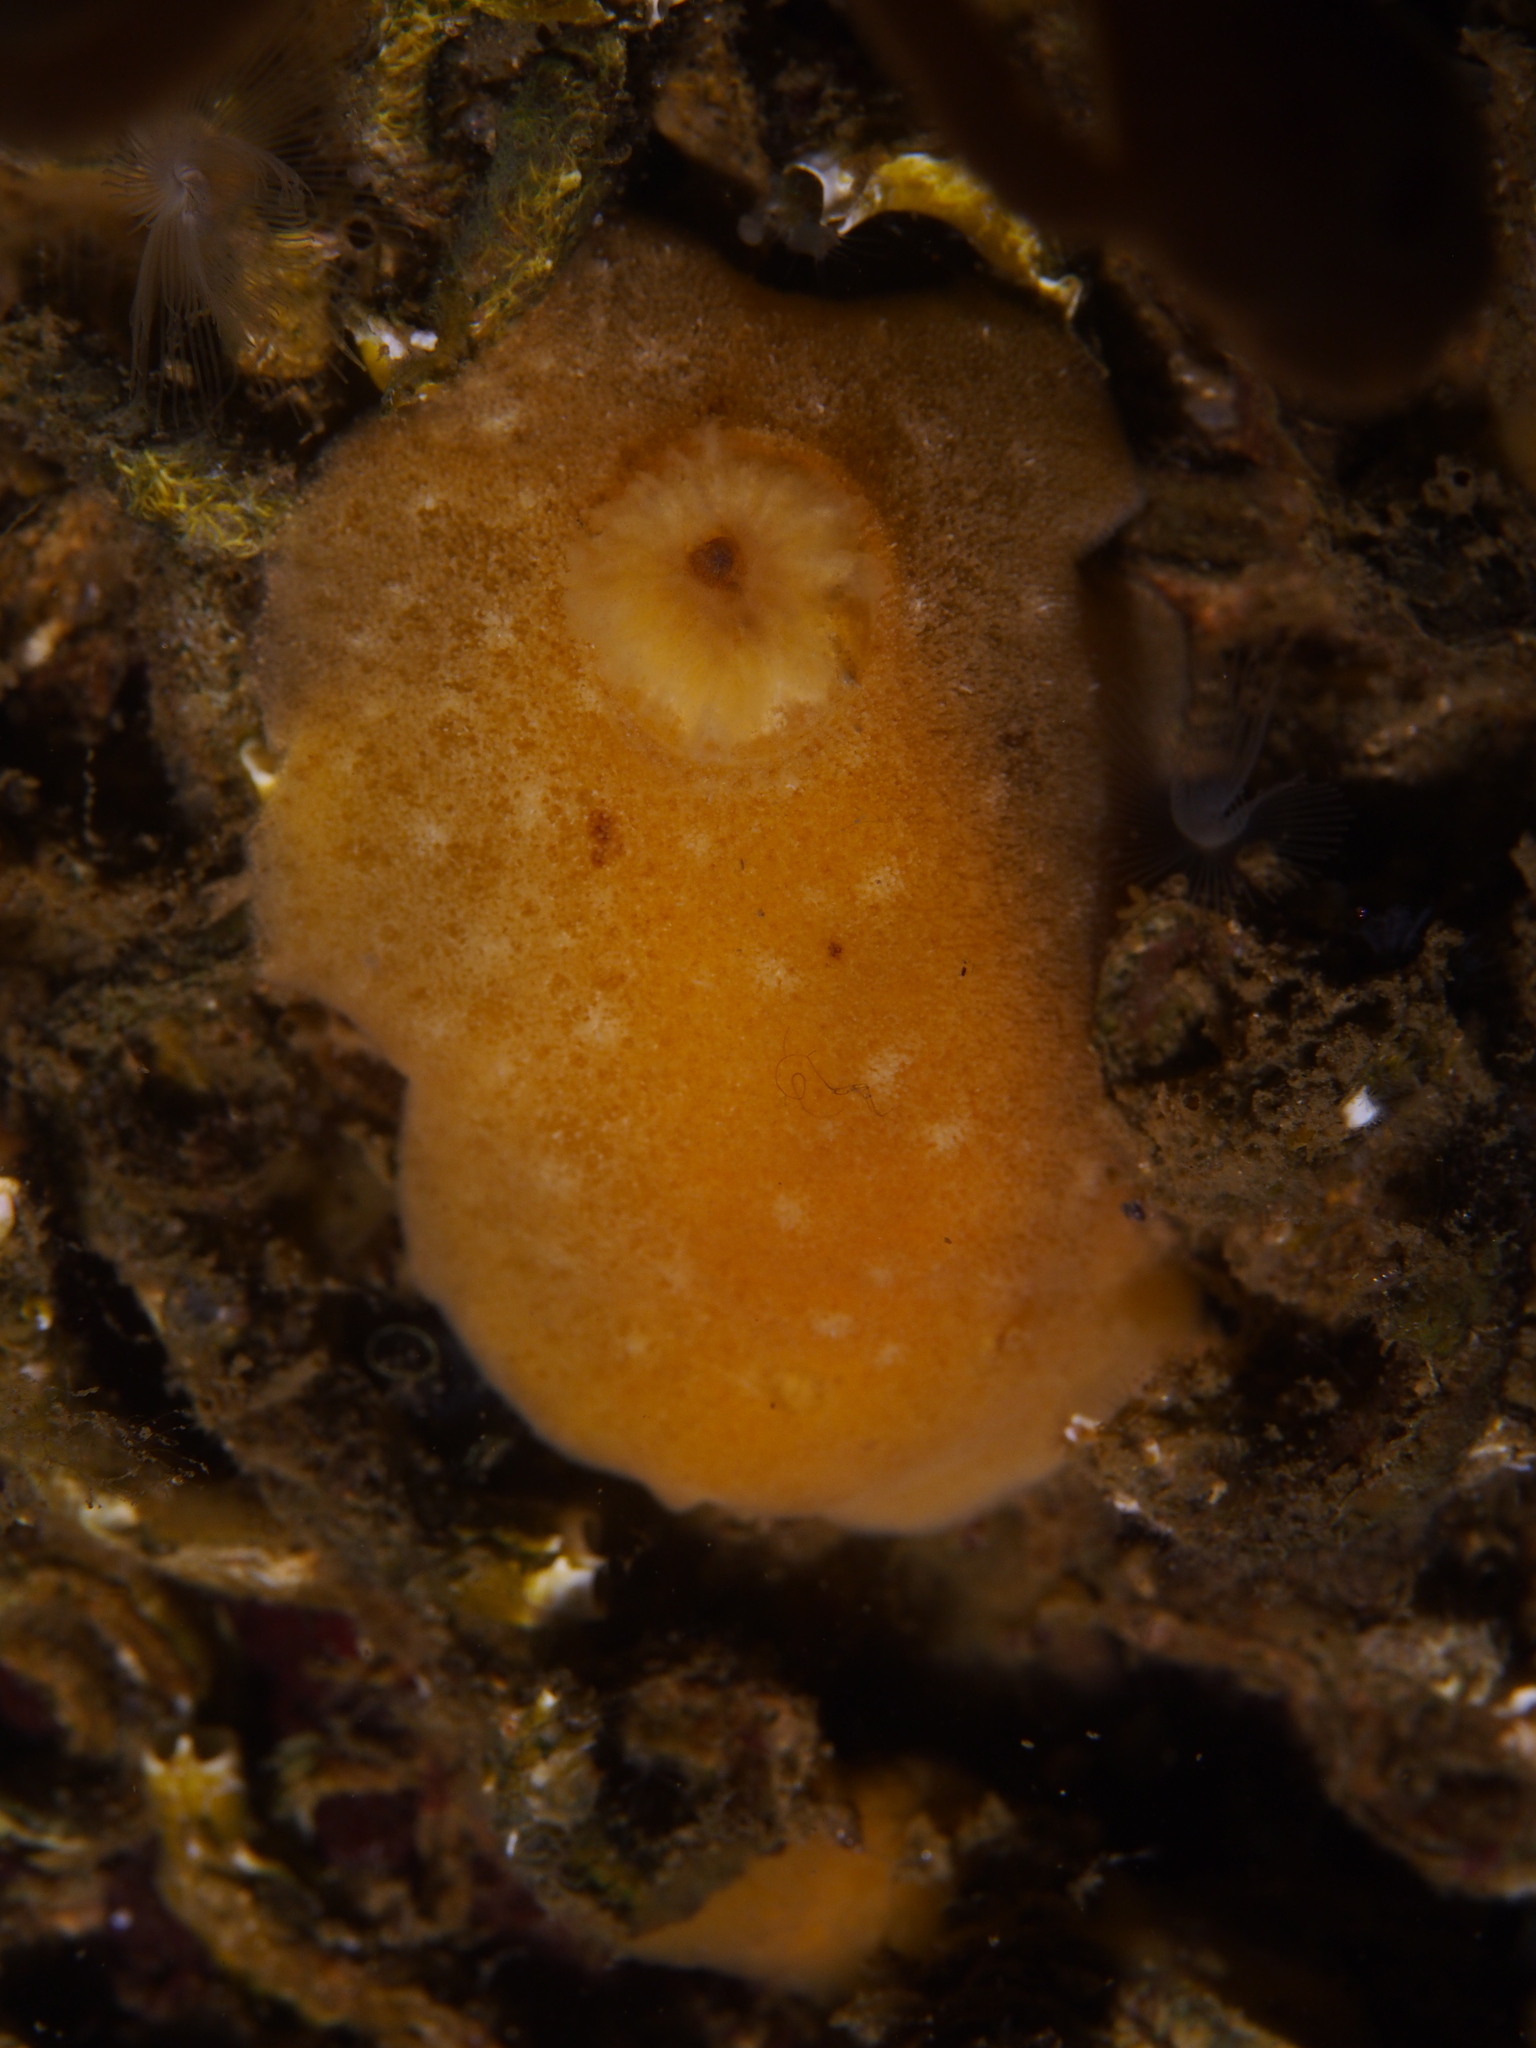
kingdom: Animalia
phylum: Mollusca
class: Gastropoda
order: Nudibranchia
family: Discodorididae
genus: Jorunna
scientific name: Jorunna tomentosa
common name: Grey sea slug
